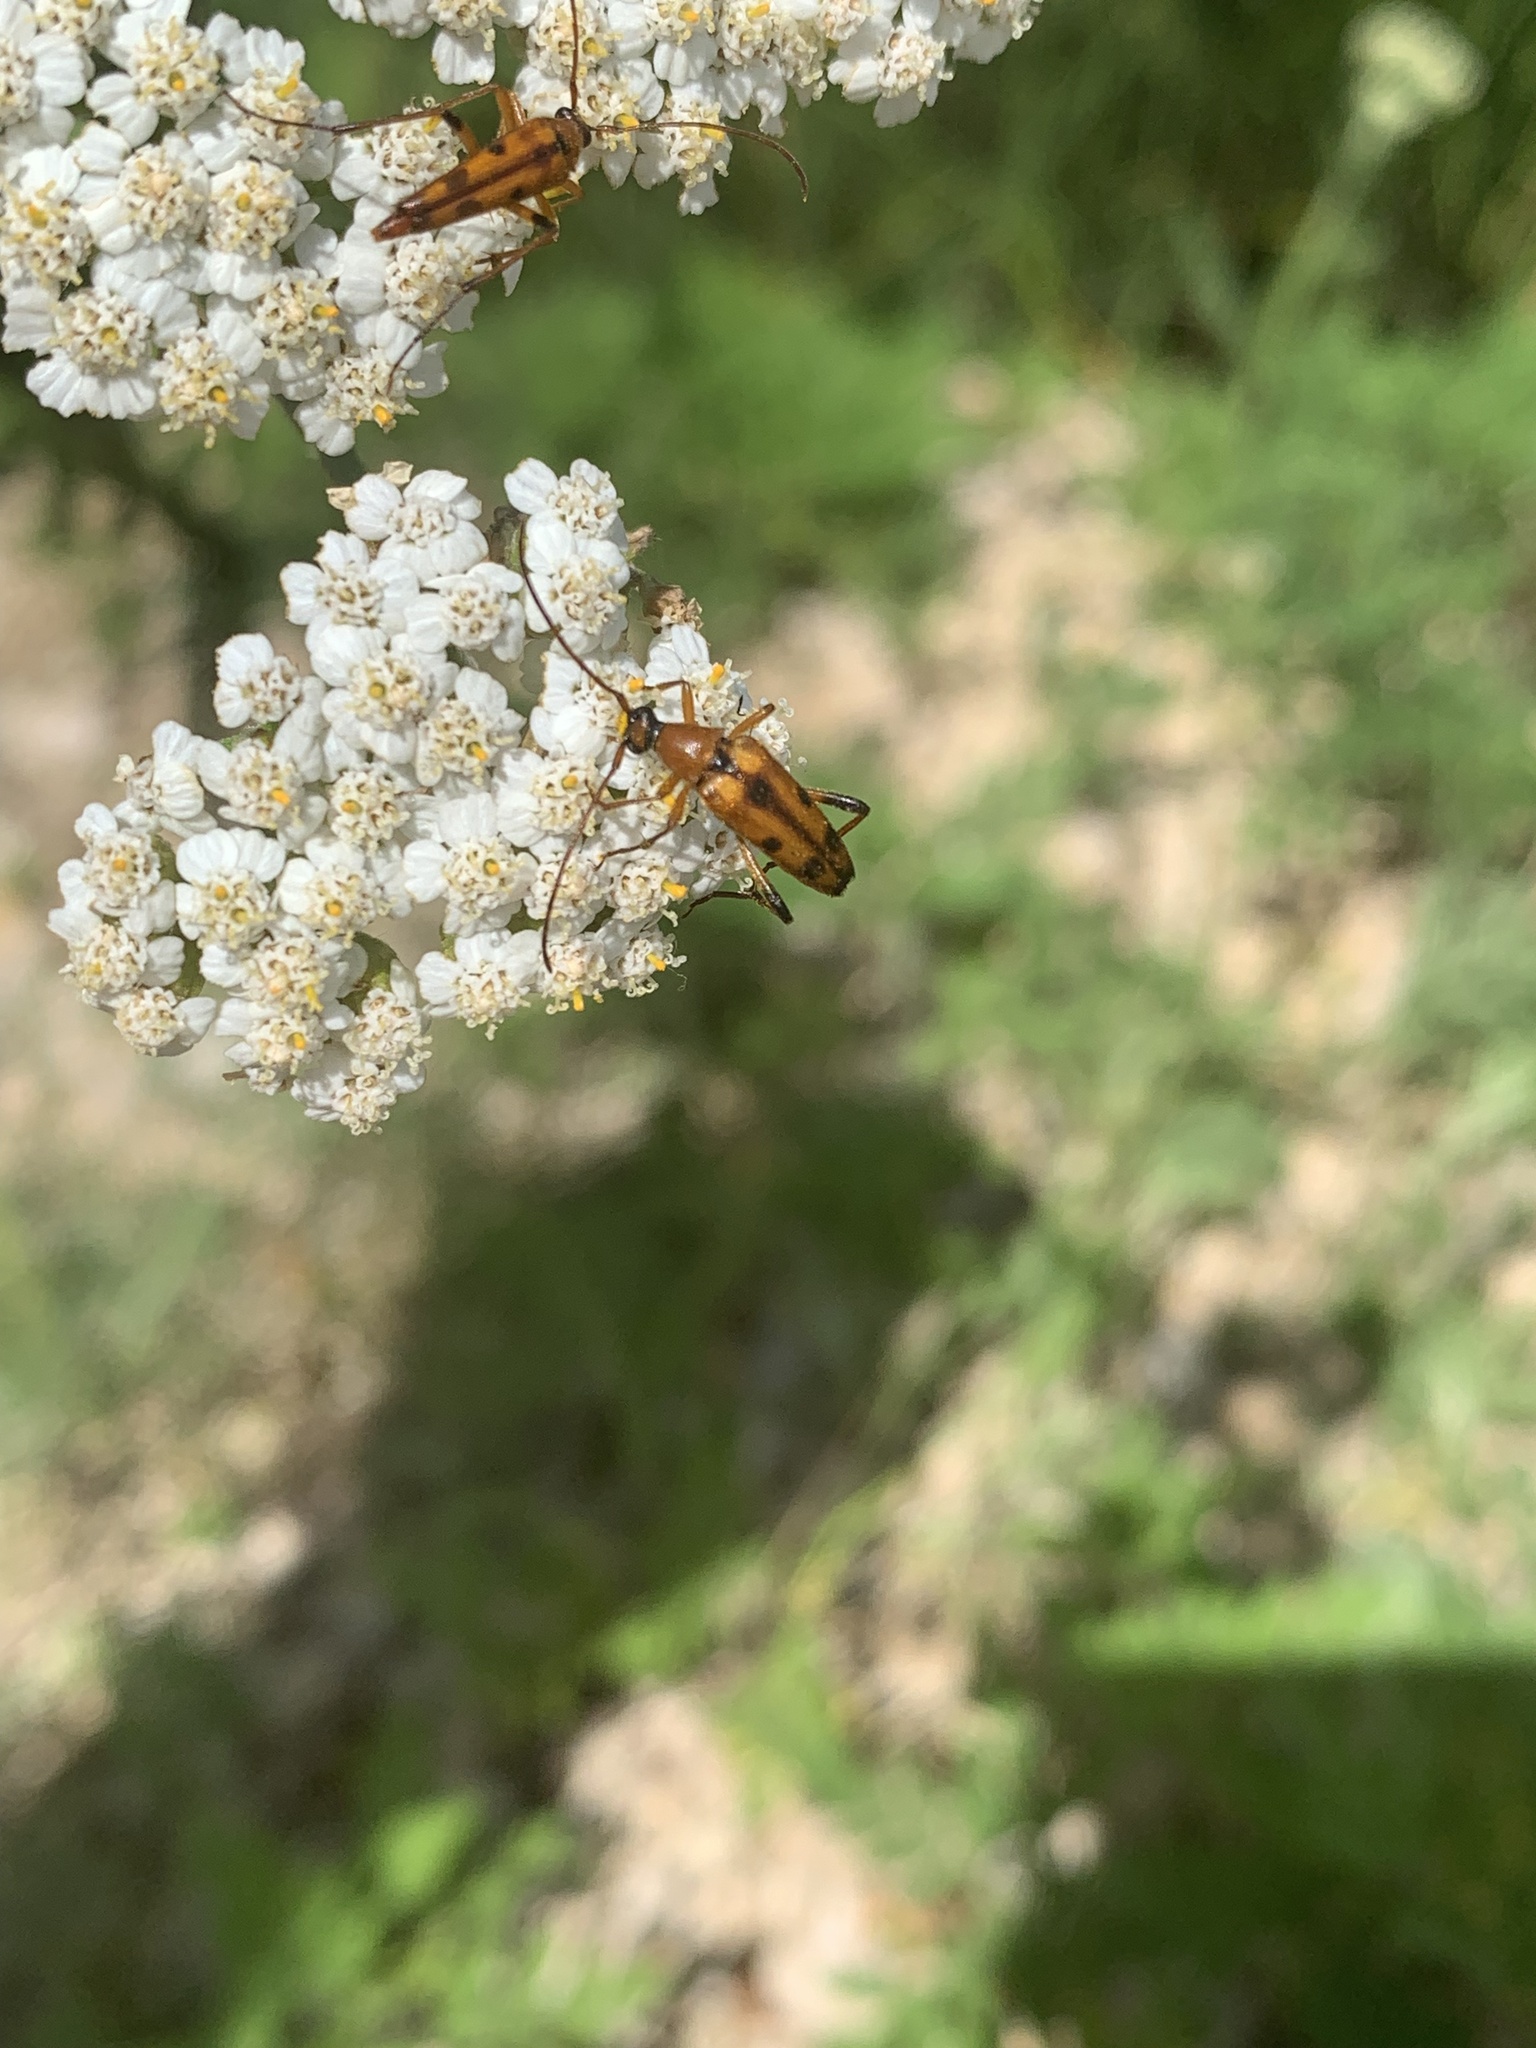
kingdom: Animalia
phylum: Arthropoda
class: Insecta
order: Coleoptera
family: Cerambycidae
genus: Stenurella
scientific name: Stenurella septempunctata
